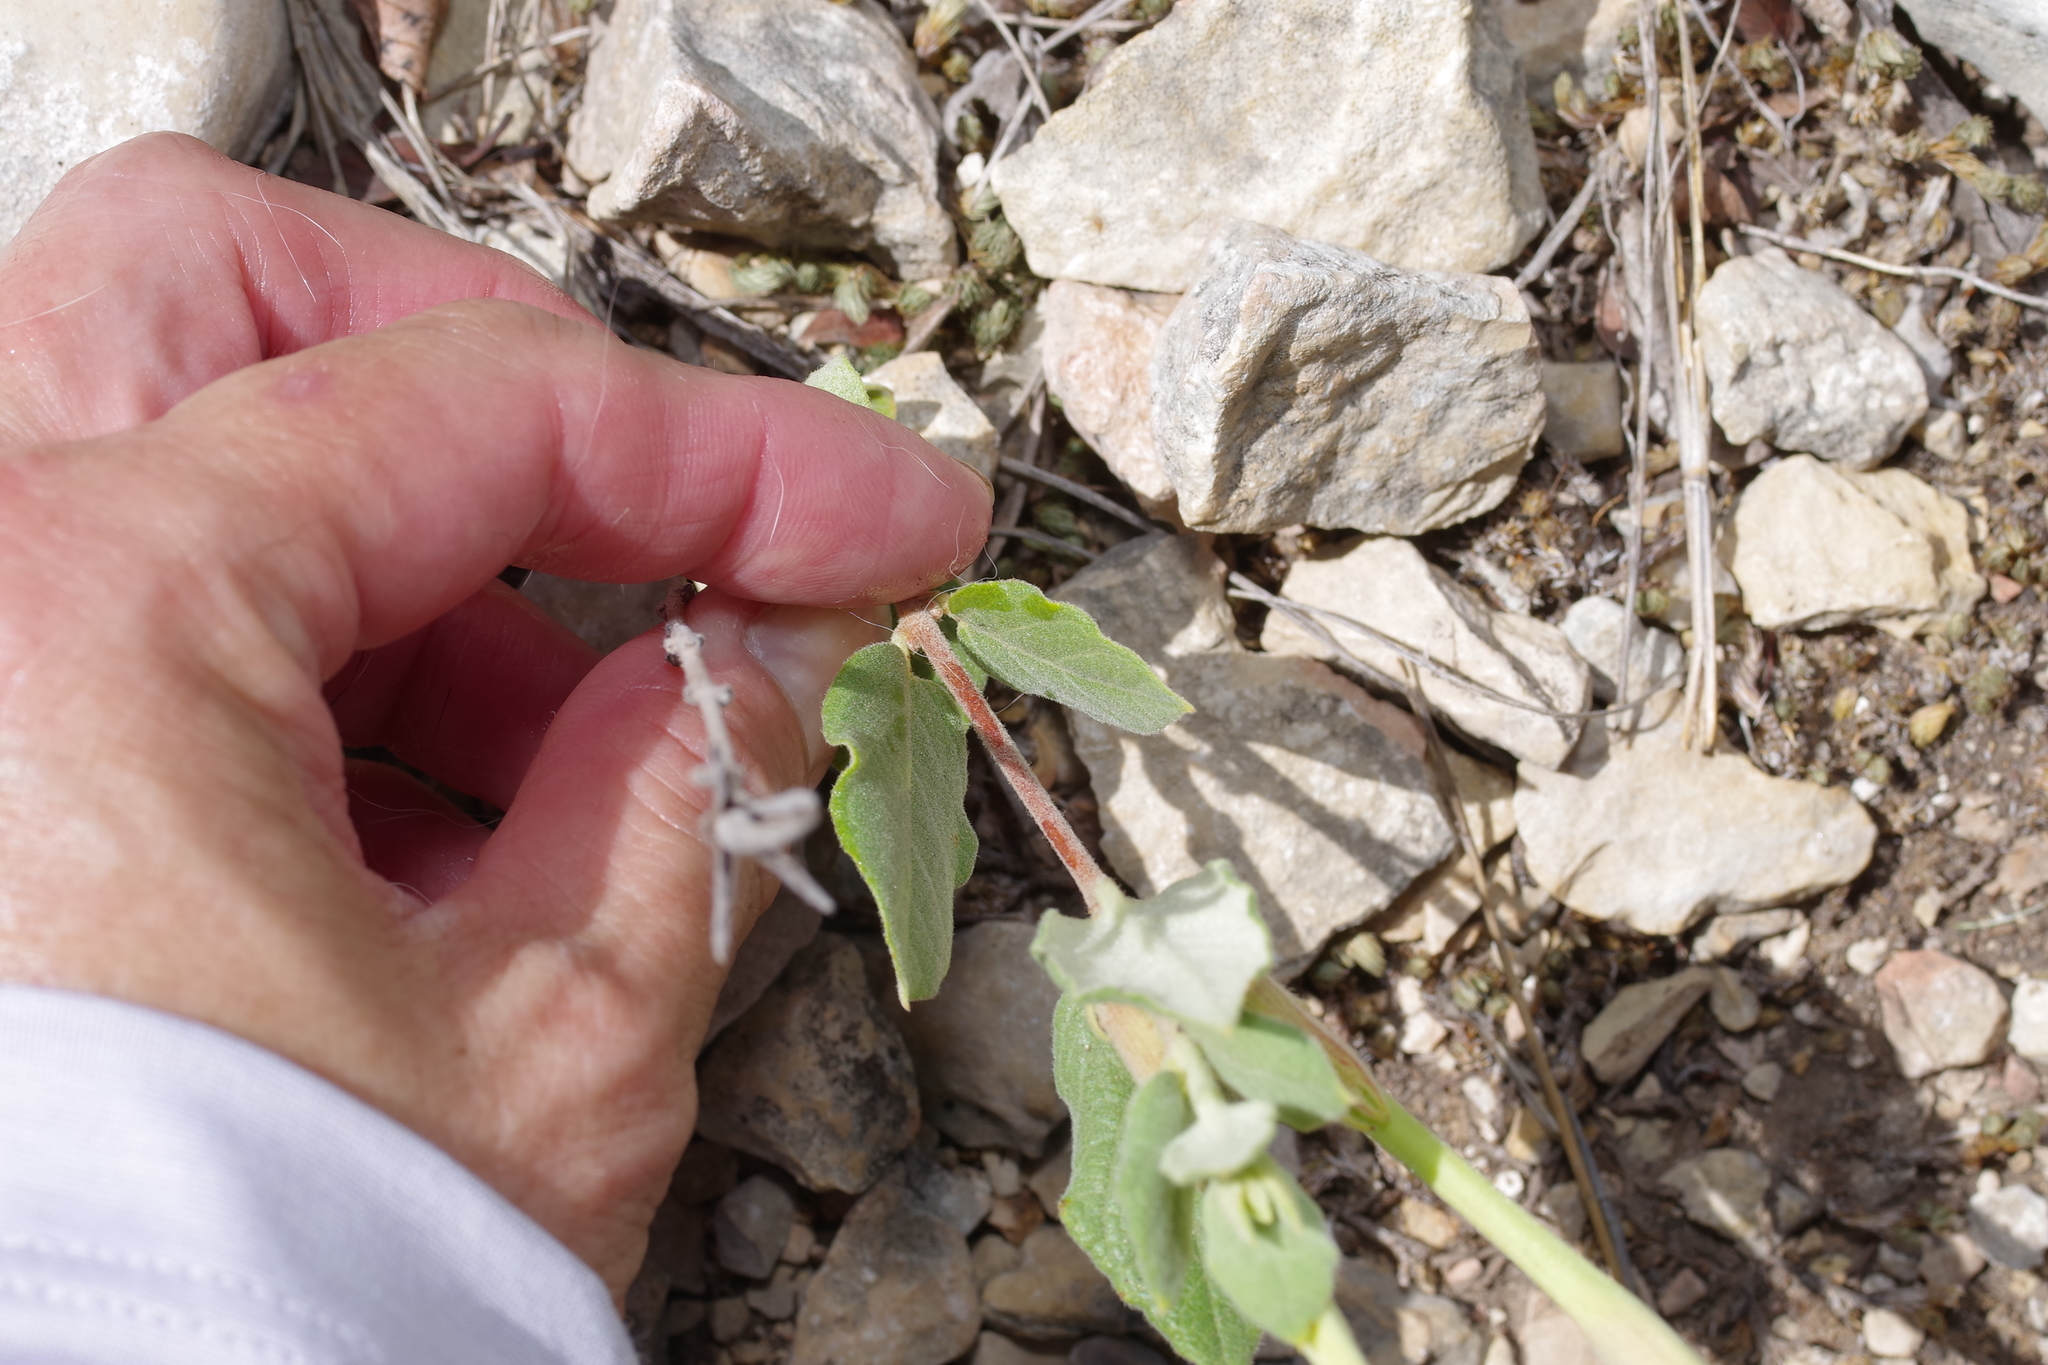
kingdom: Plantae
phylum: Tracheophyta
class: Magnoliopsida
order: Gentianales
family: Apocynaceae
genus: Mandevilla
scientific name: Mandevilla macrosiphon
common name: Plateau rocktrumpet
